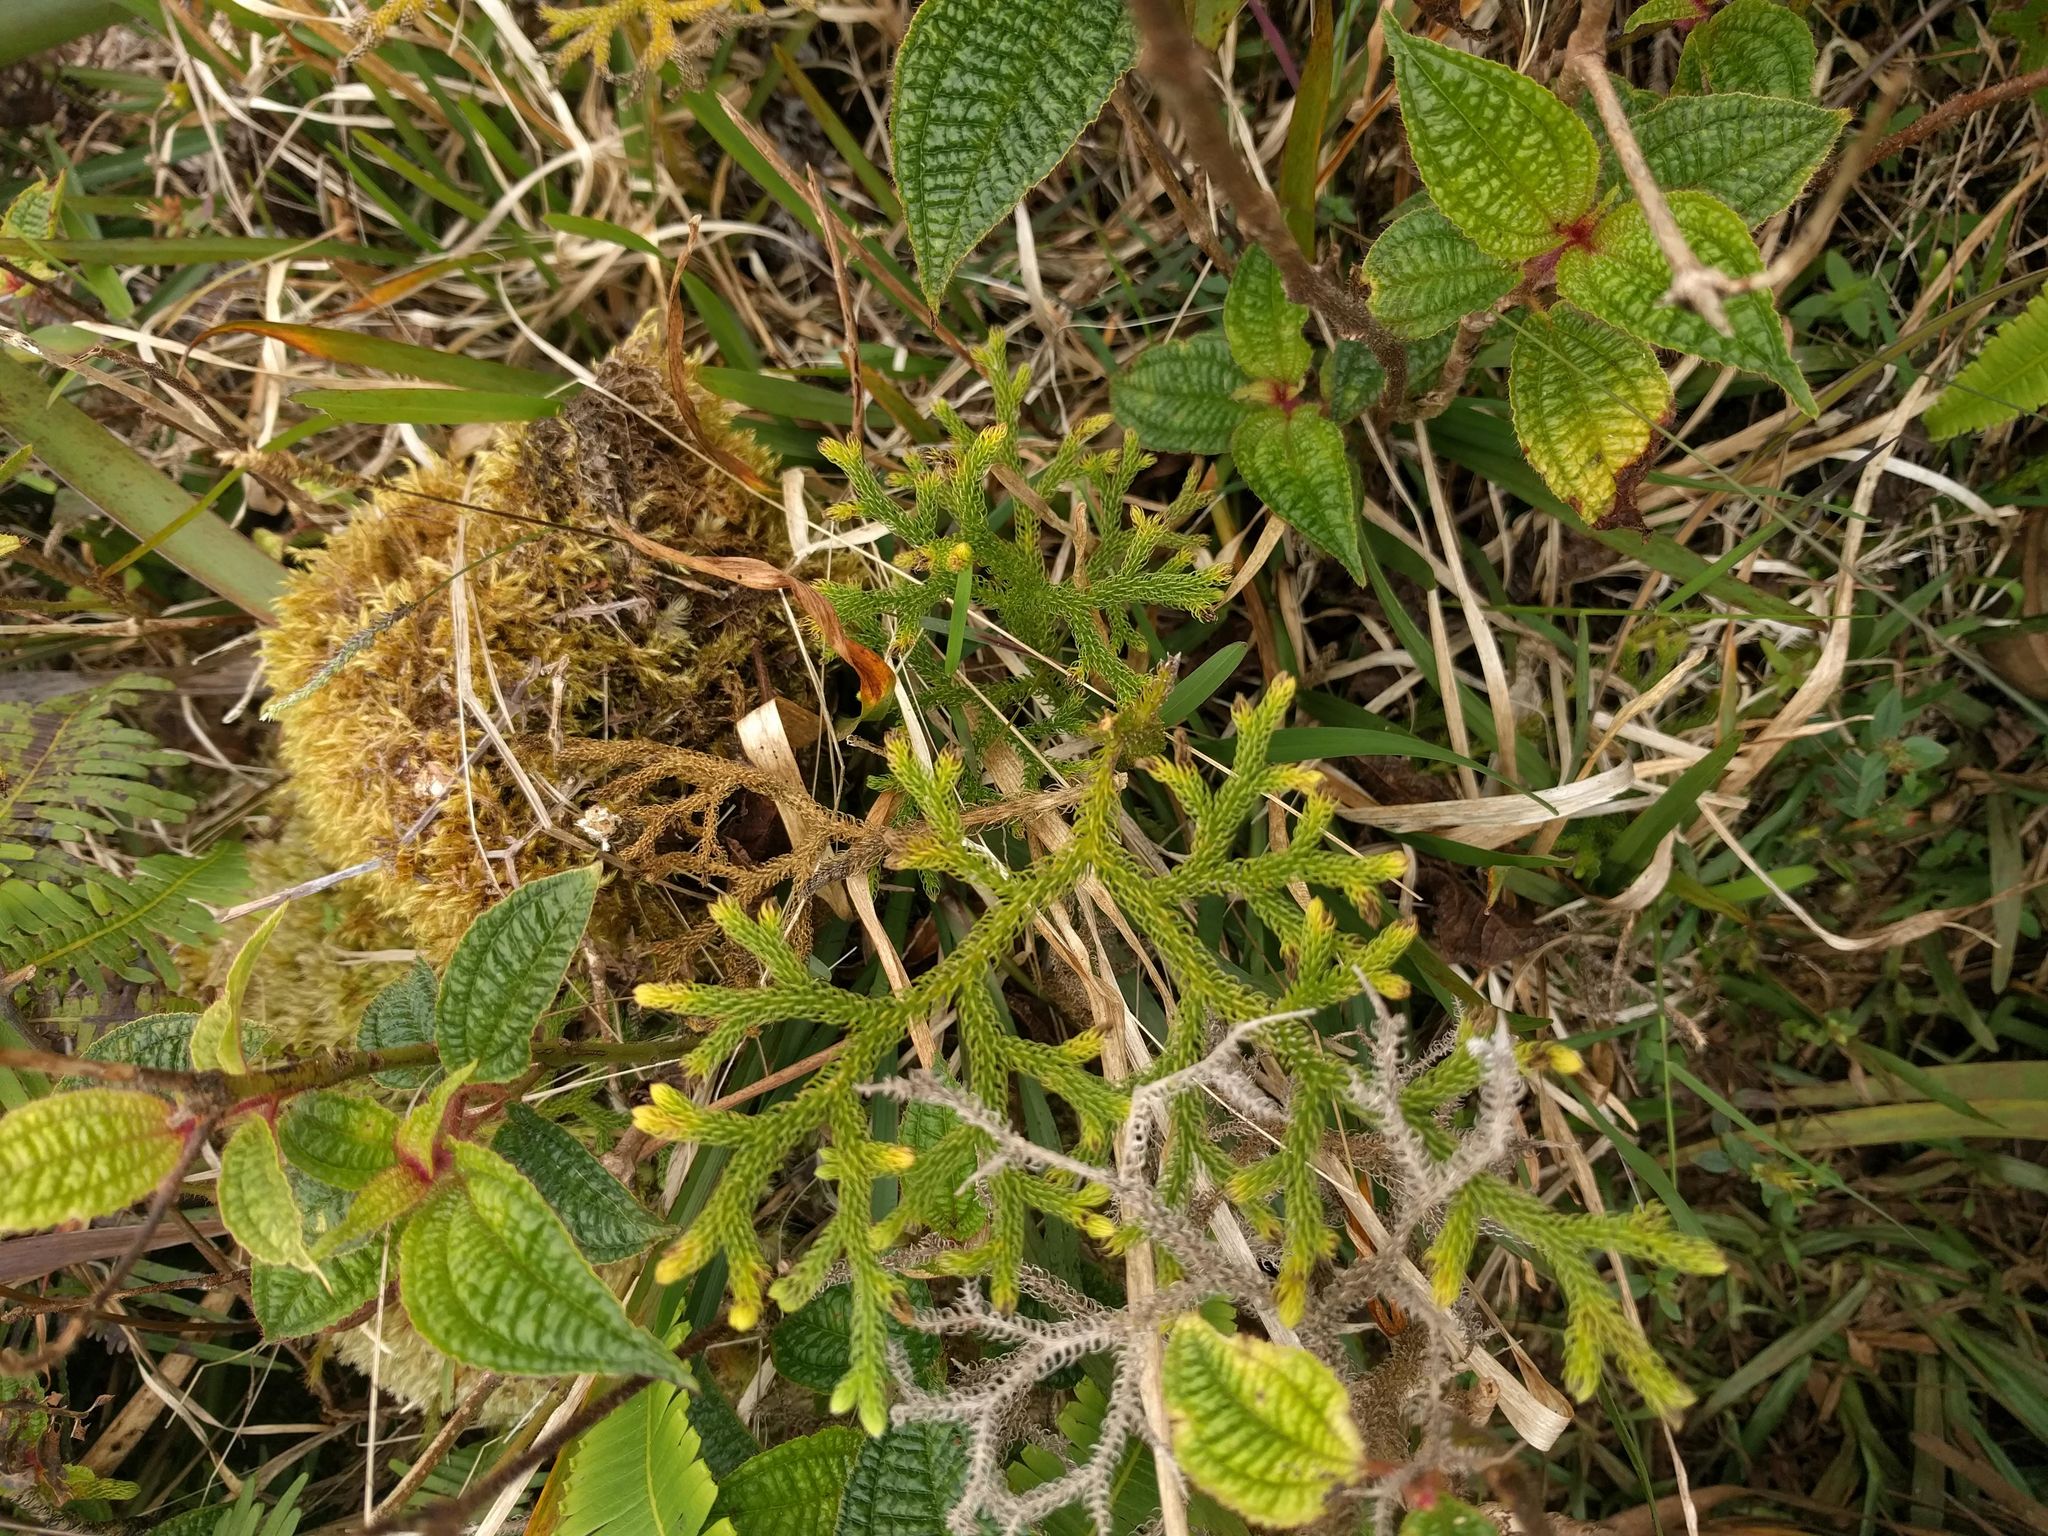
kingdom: Plantae
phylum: Tracheophyta
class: Lycopodiopsida
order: Lycopodiales
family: Lycopodiaceae
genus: Palhinhaea
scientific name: Palhinhaea cernua
